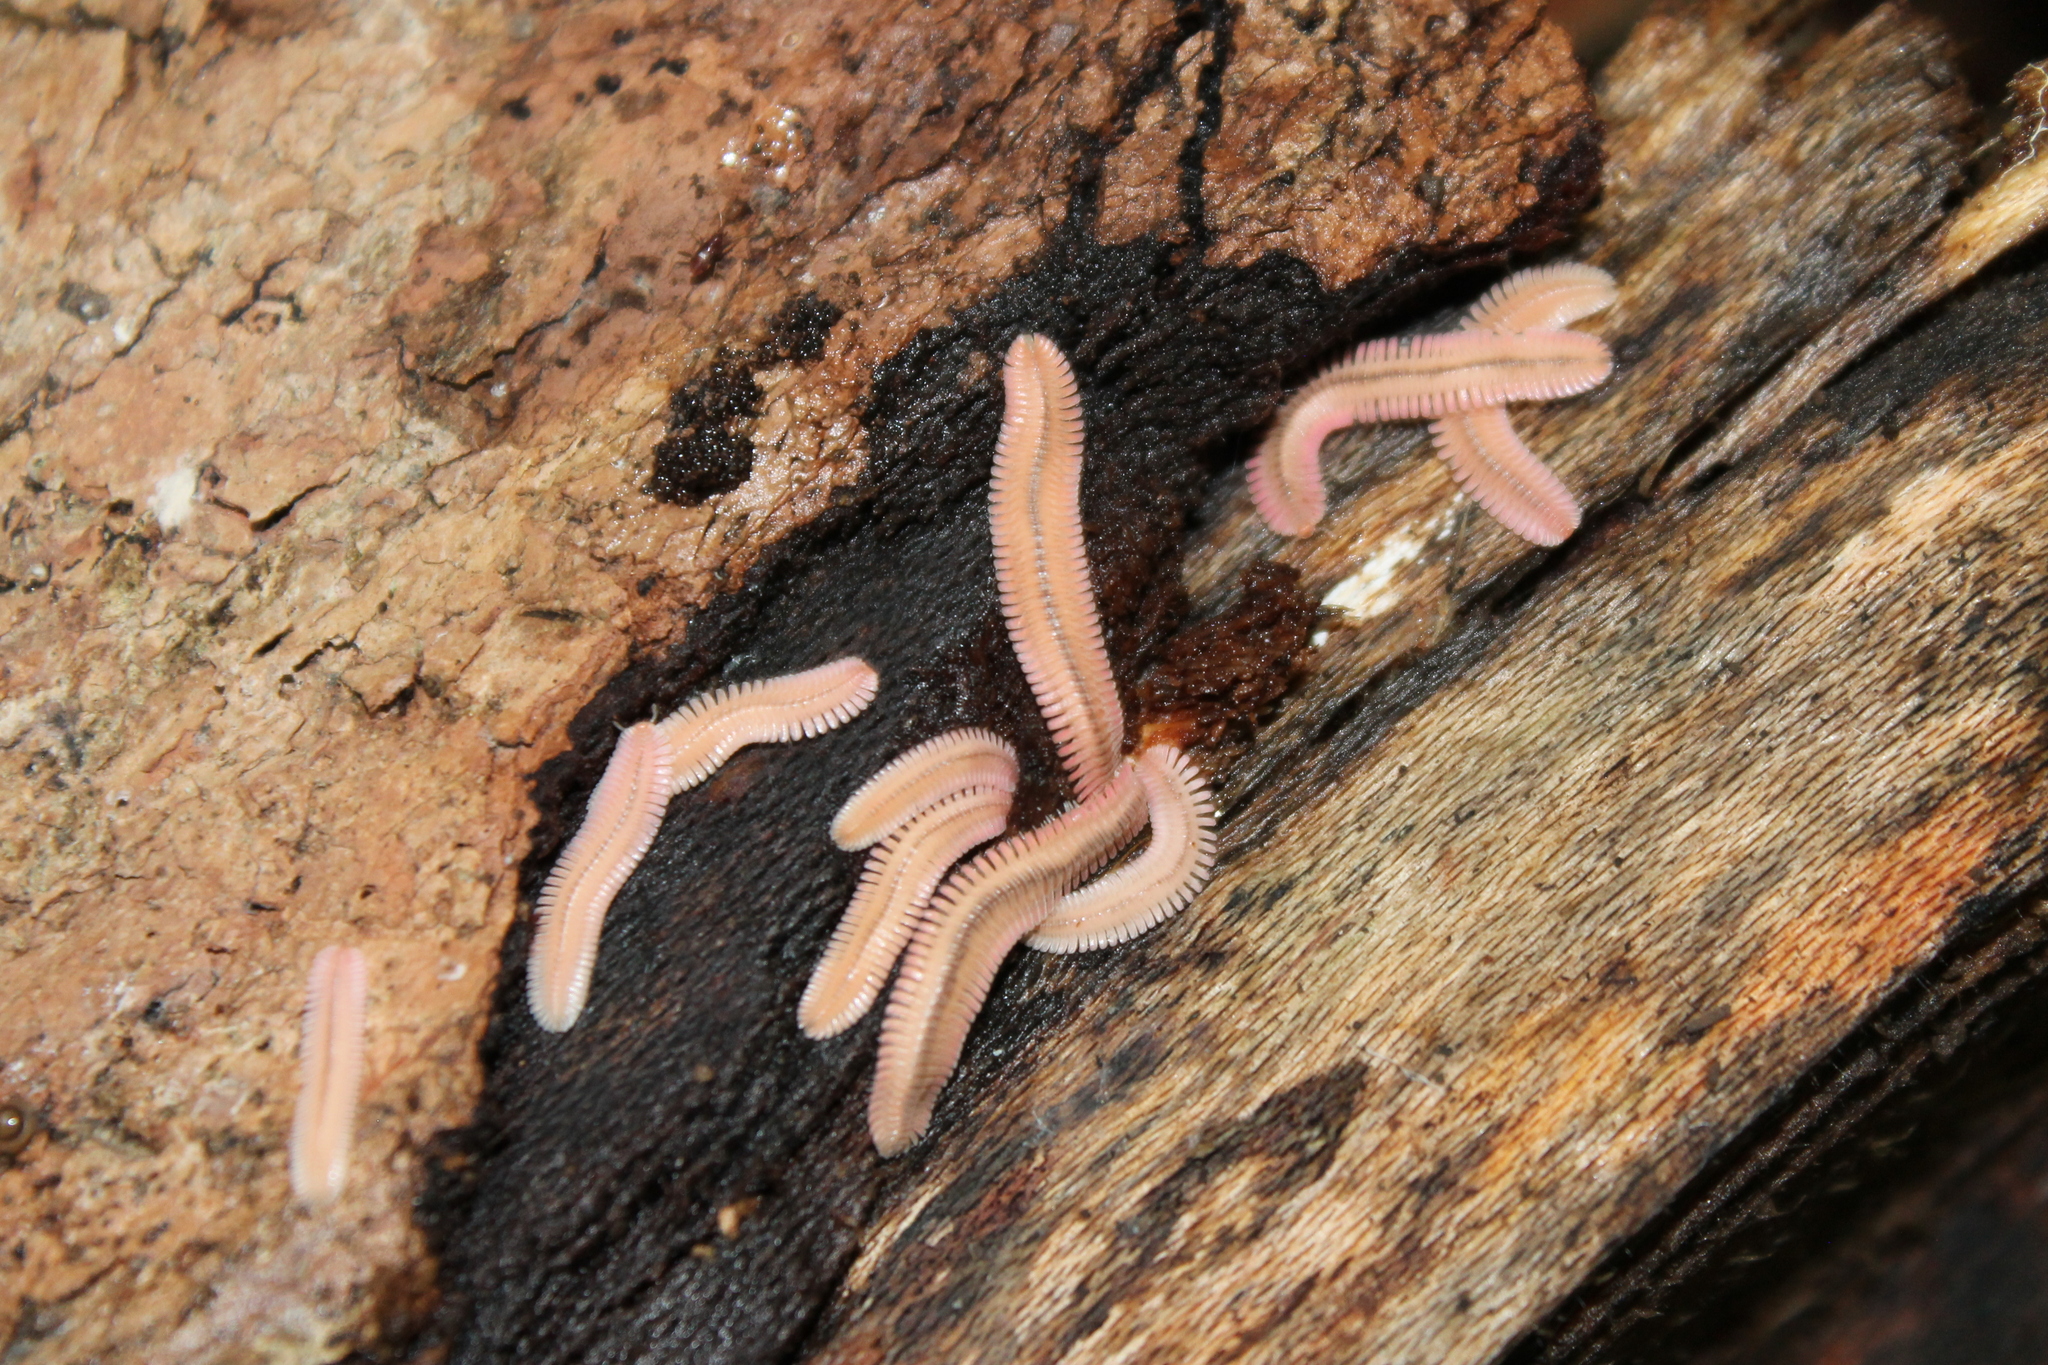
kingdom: Animalia
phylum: Arthropoda
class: Diplopoda
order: Platydesmida
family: Andrognathidae
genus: Brachycybe
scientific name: Brachycybe lecontii
